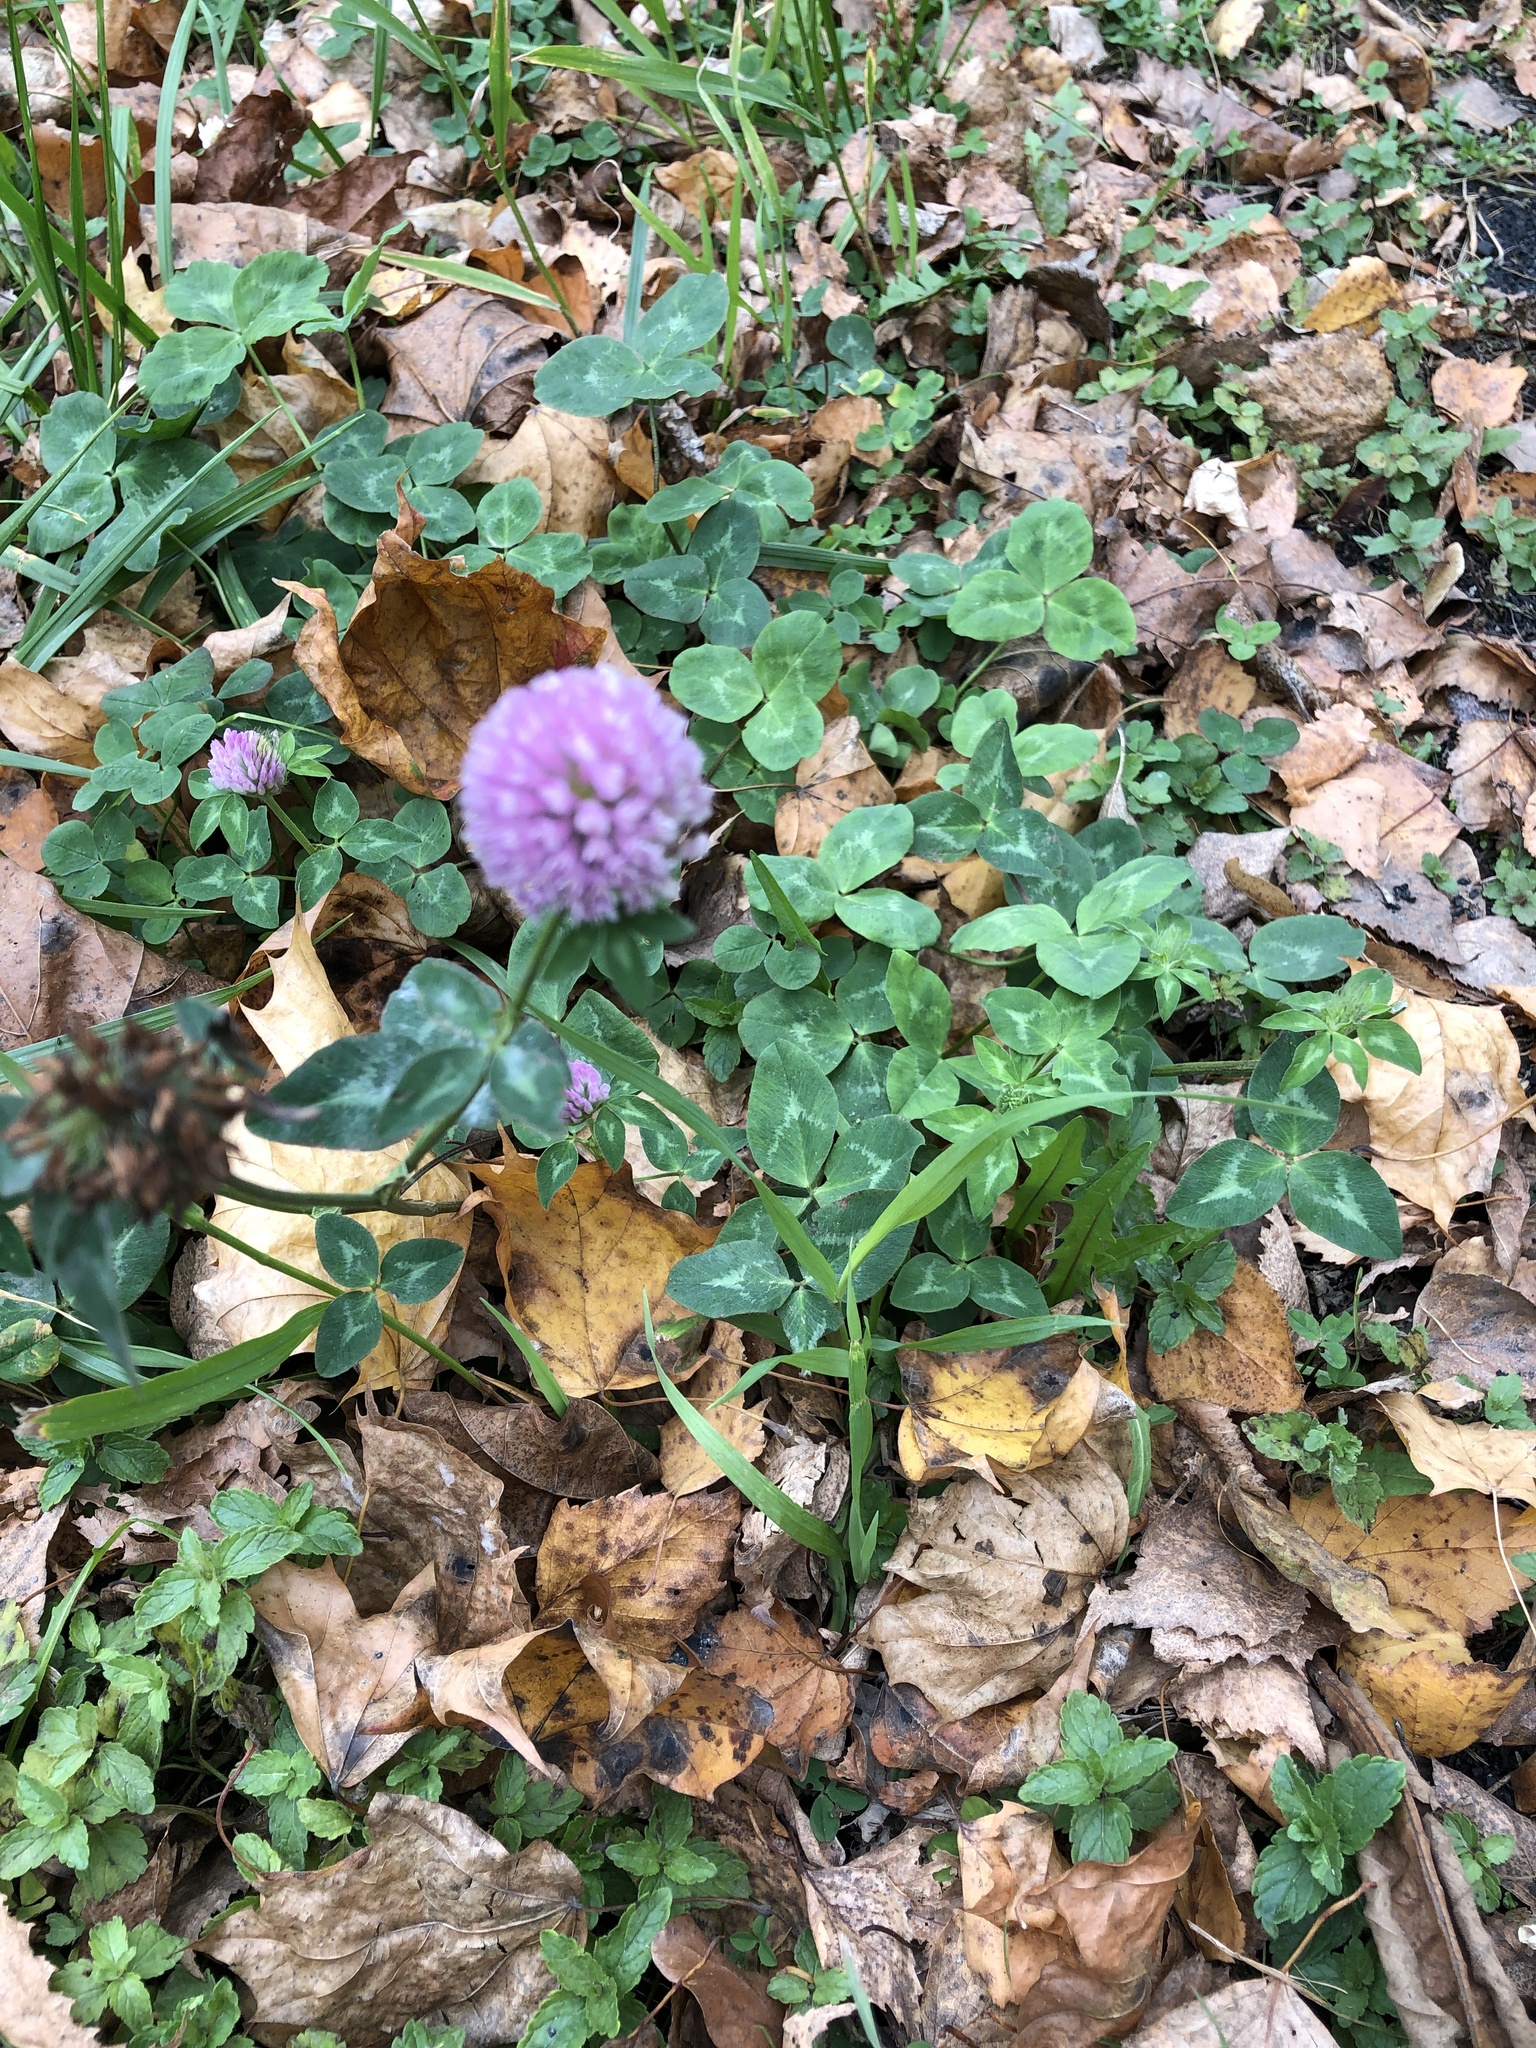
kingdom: Plantae
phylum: Tracheophyta
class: Magnoliopsida
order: Fabales
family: Fabaceae
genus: Trifolium
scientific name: Trifolium pratense
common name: Red clover
